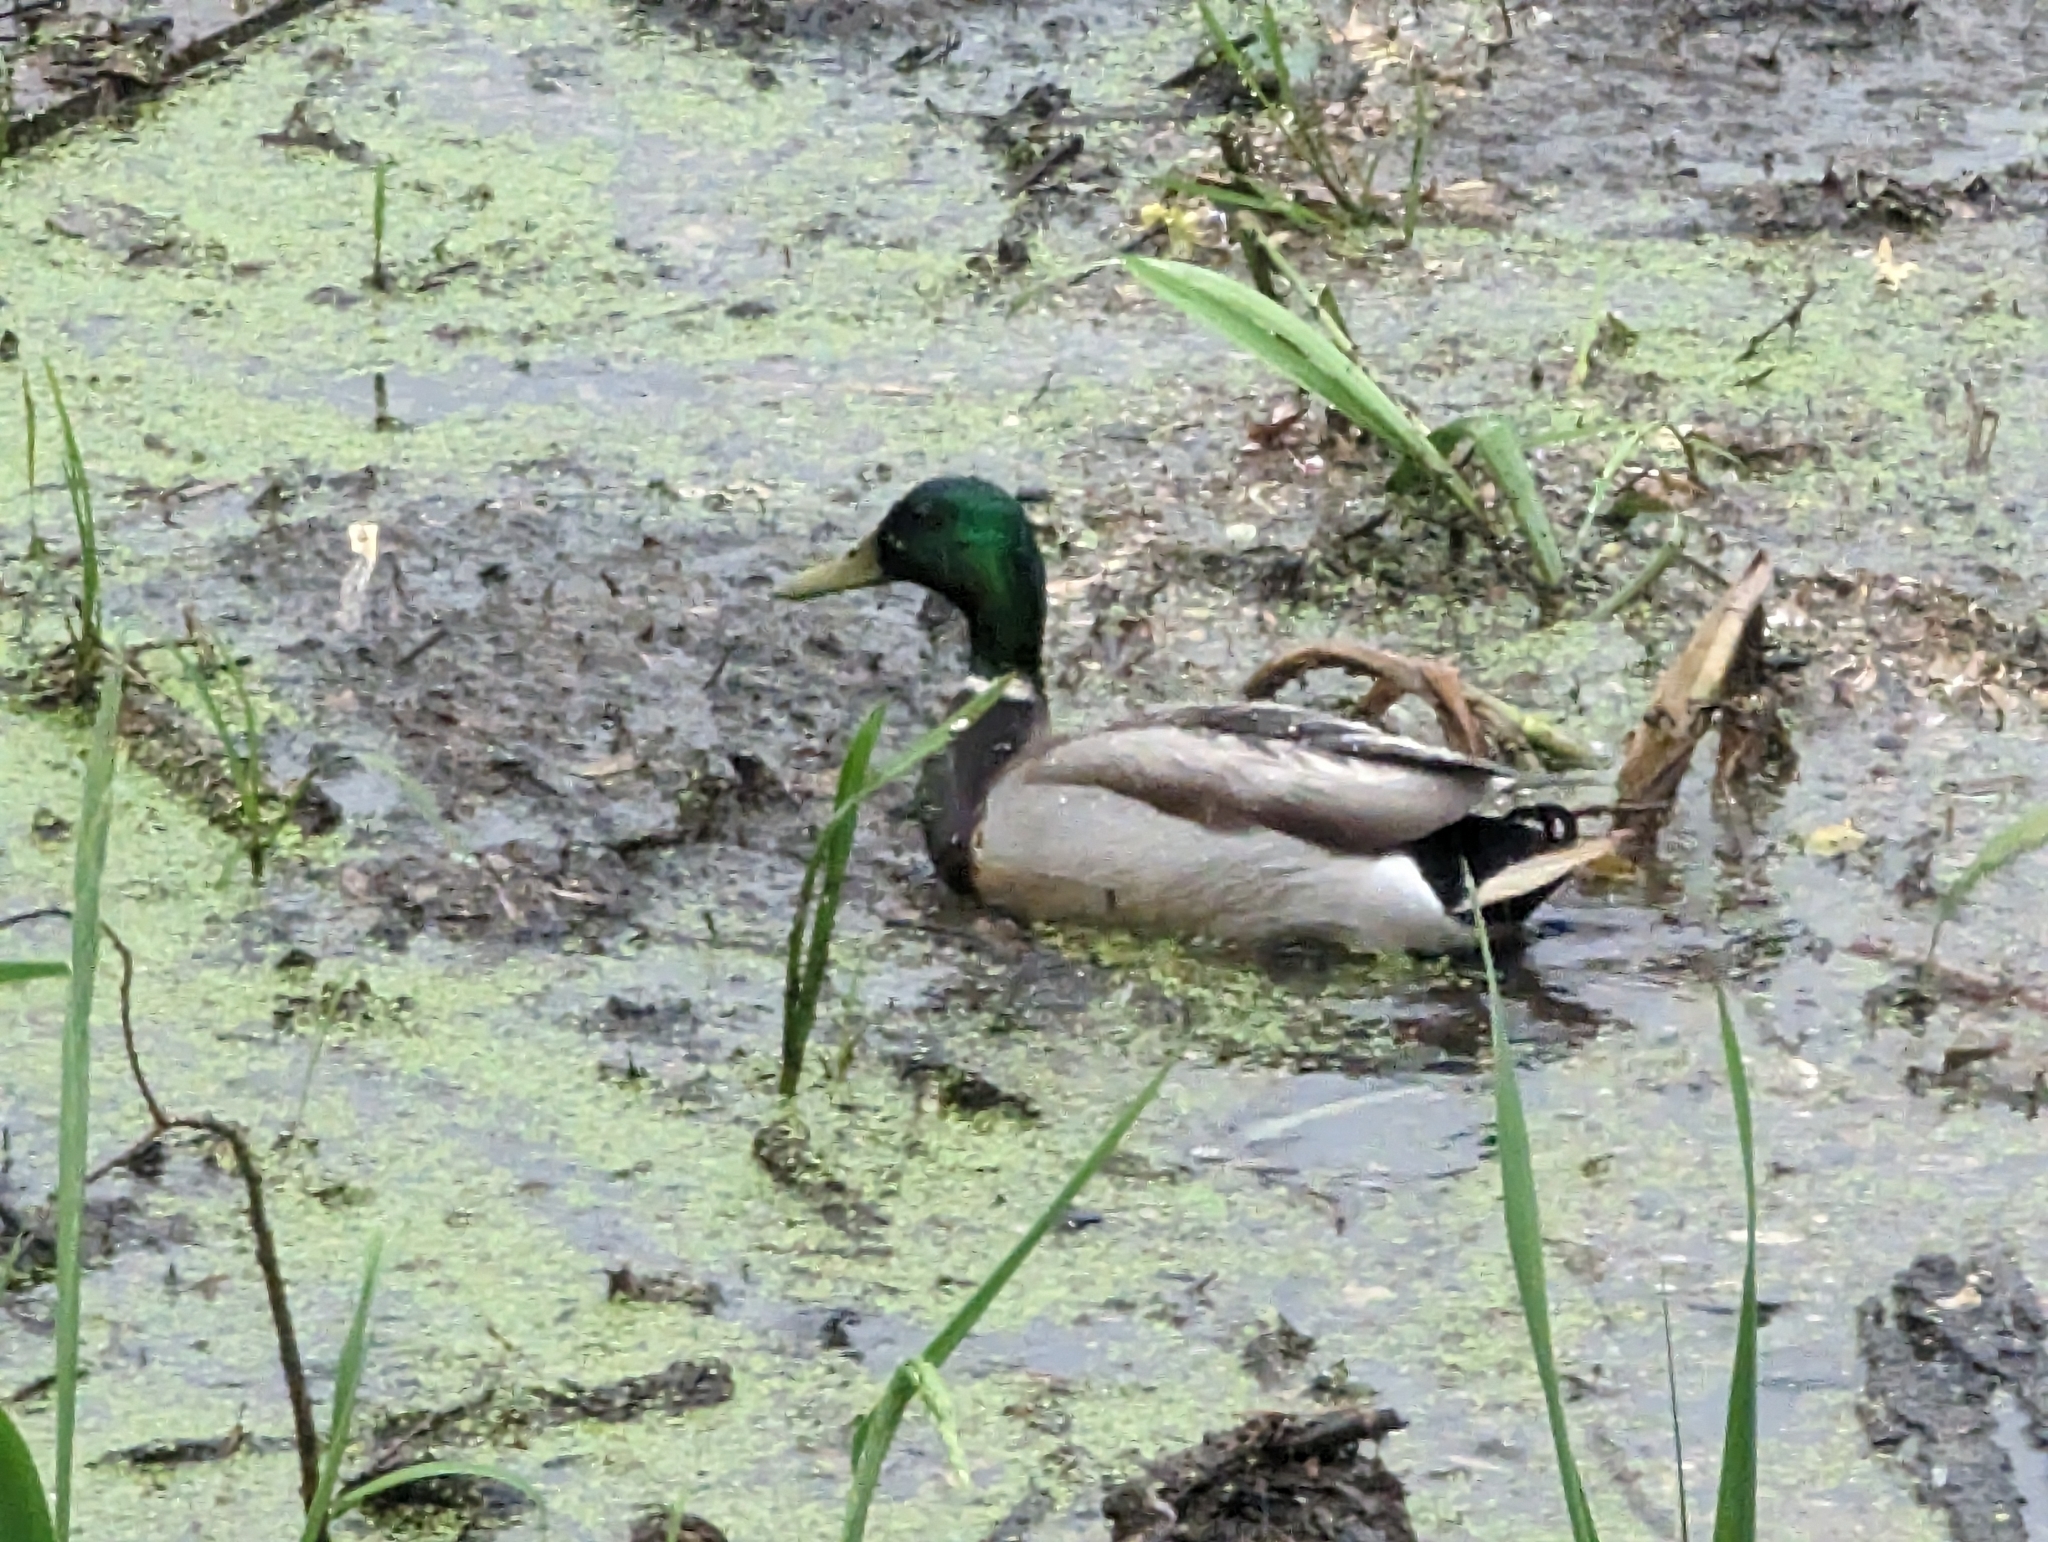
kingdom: Animalia
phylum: Chordata
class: Aves
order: Anseriformes
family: Anatidae
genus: Anas
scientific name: Anas platyrhynchos
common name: Mallard
